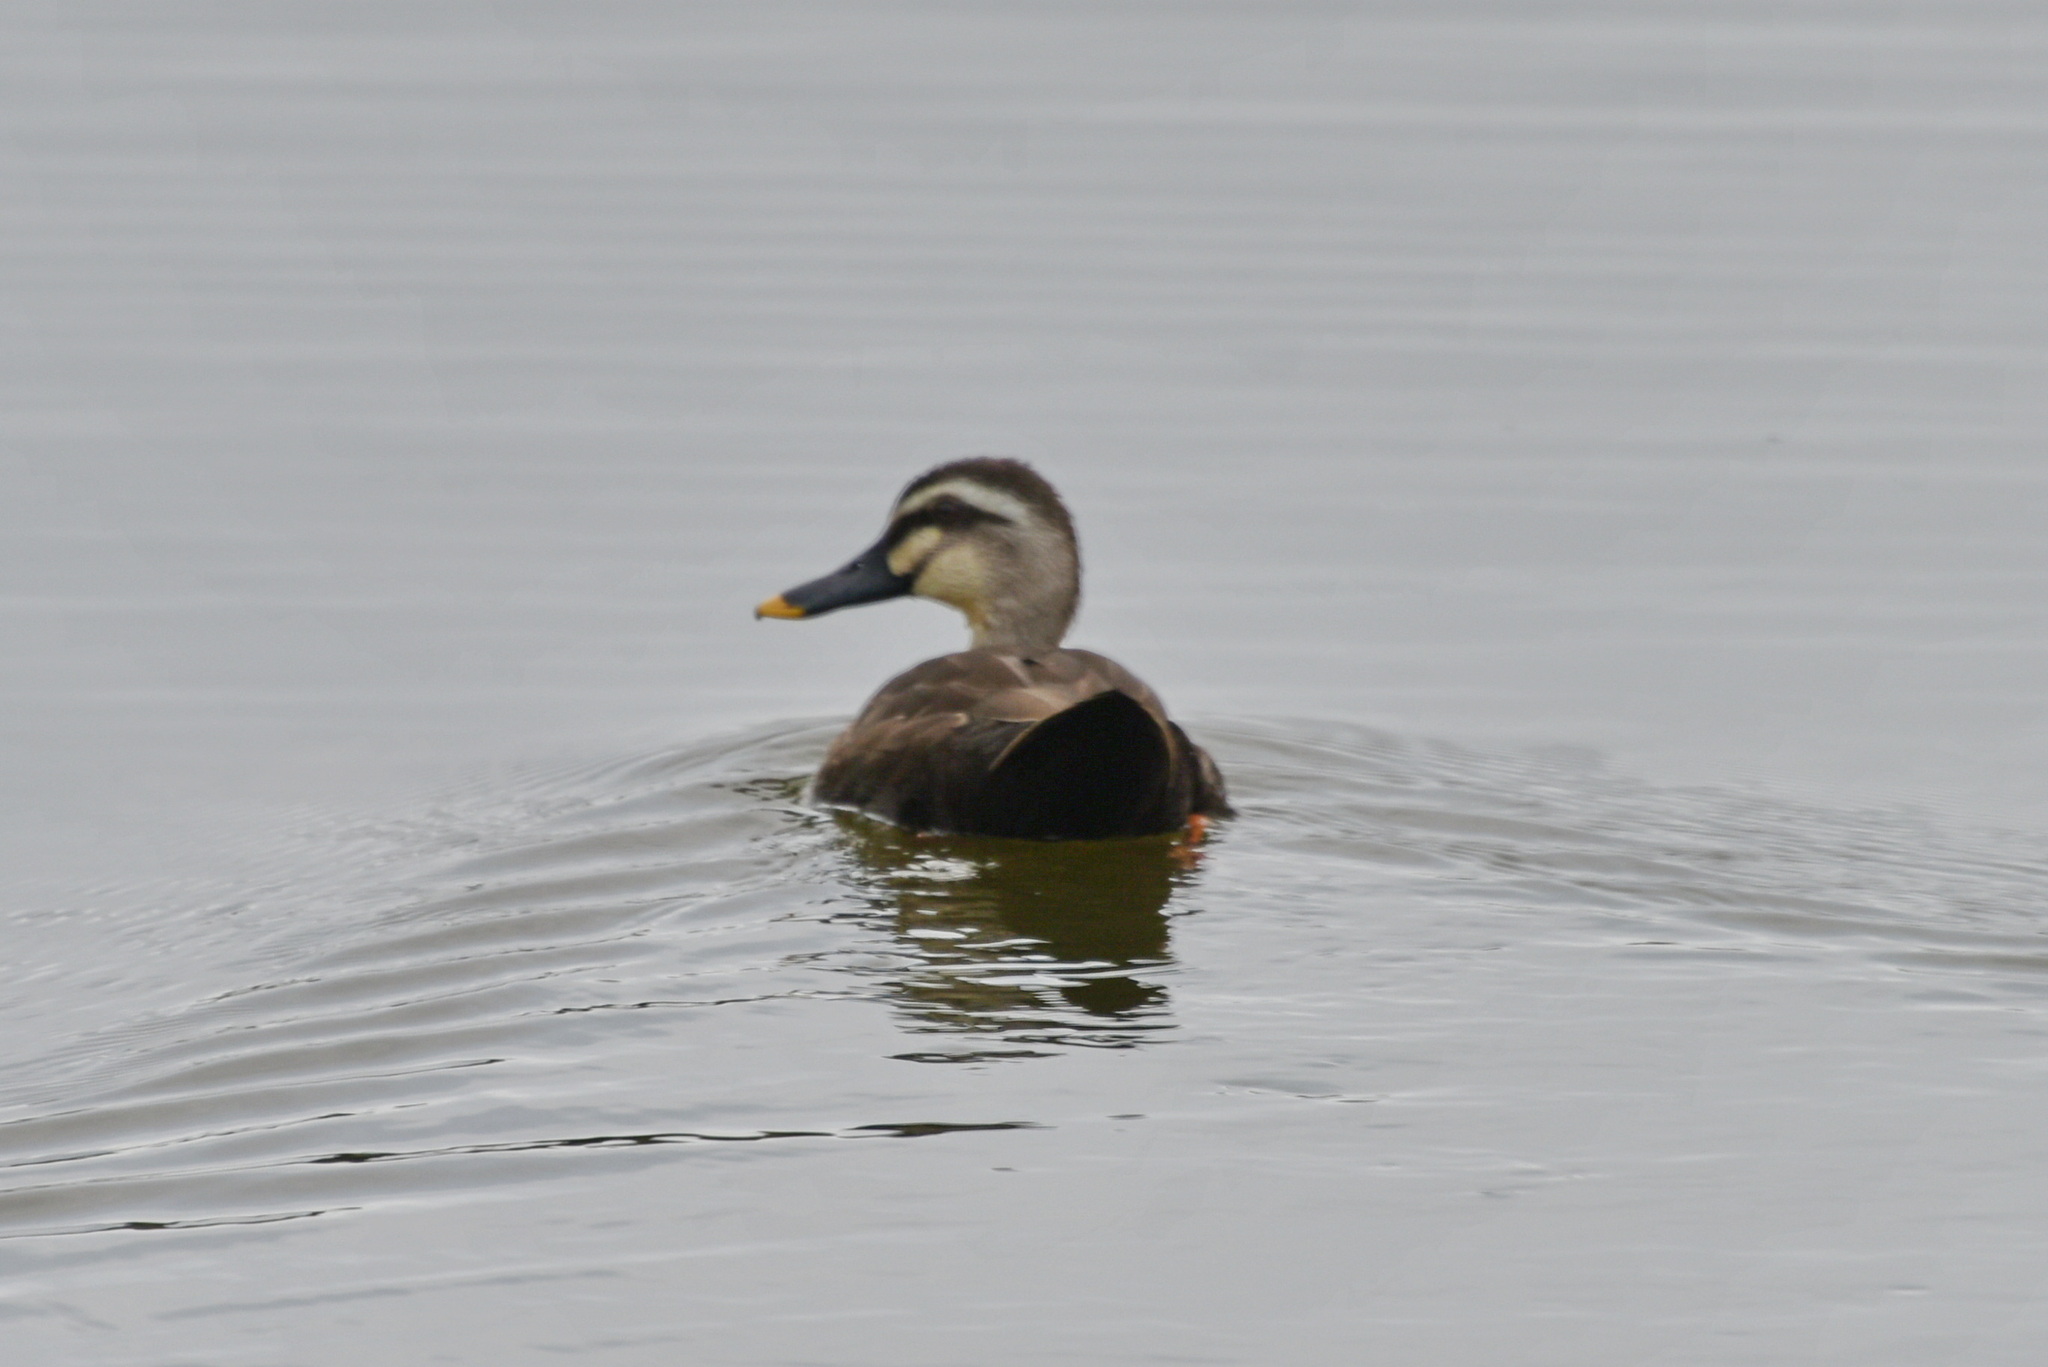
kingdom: Animalia
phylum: Chordata
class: Aves
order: Anseriformes
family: Anatidae
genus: Anas
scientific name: Anas zonorhyncha
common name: Eastern spot-billed duck
